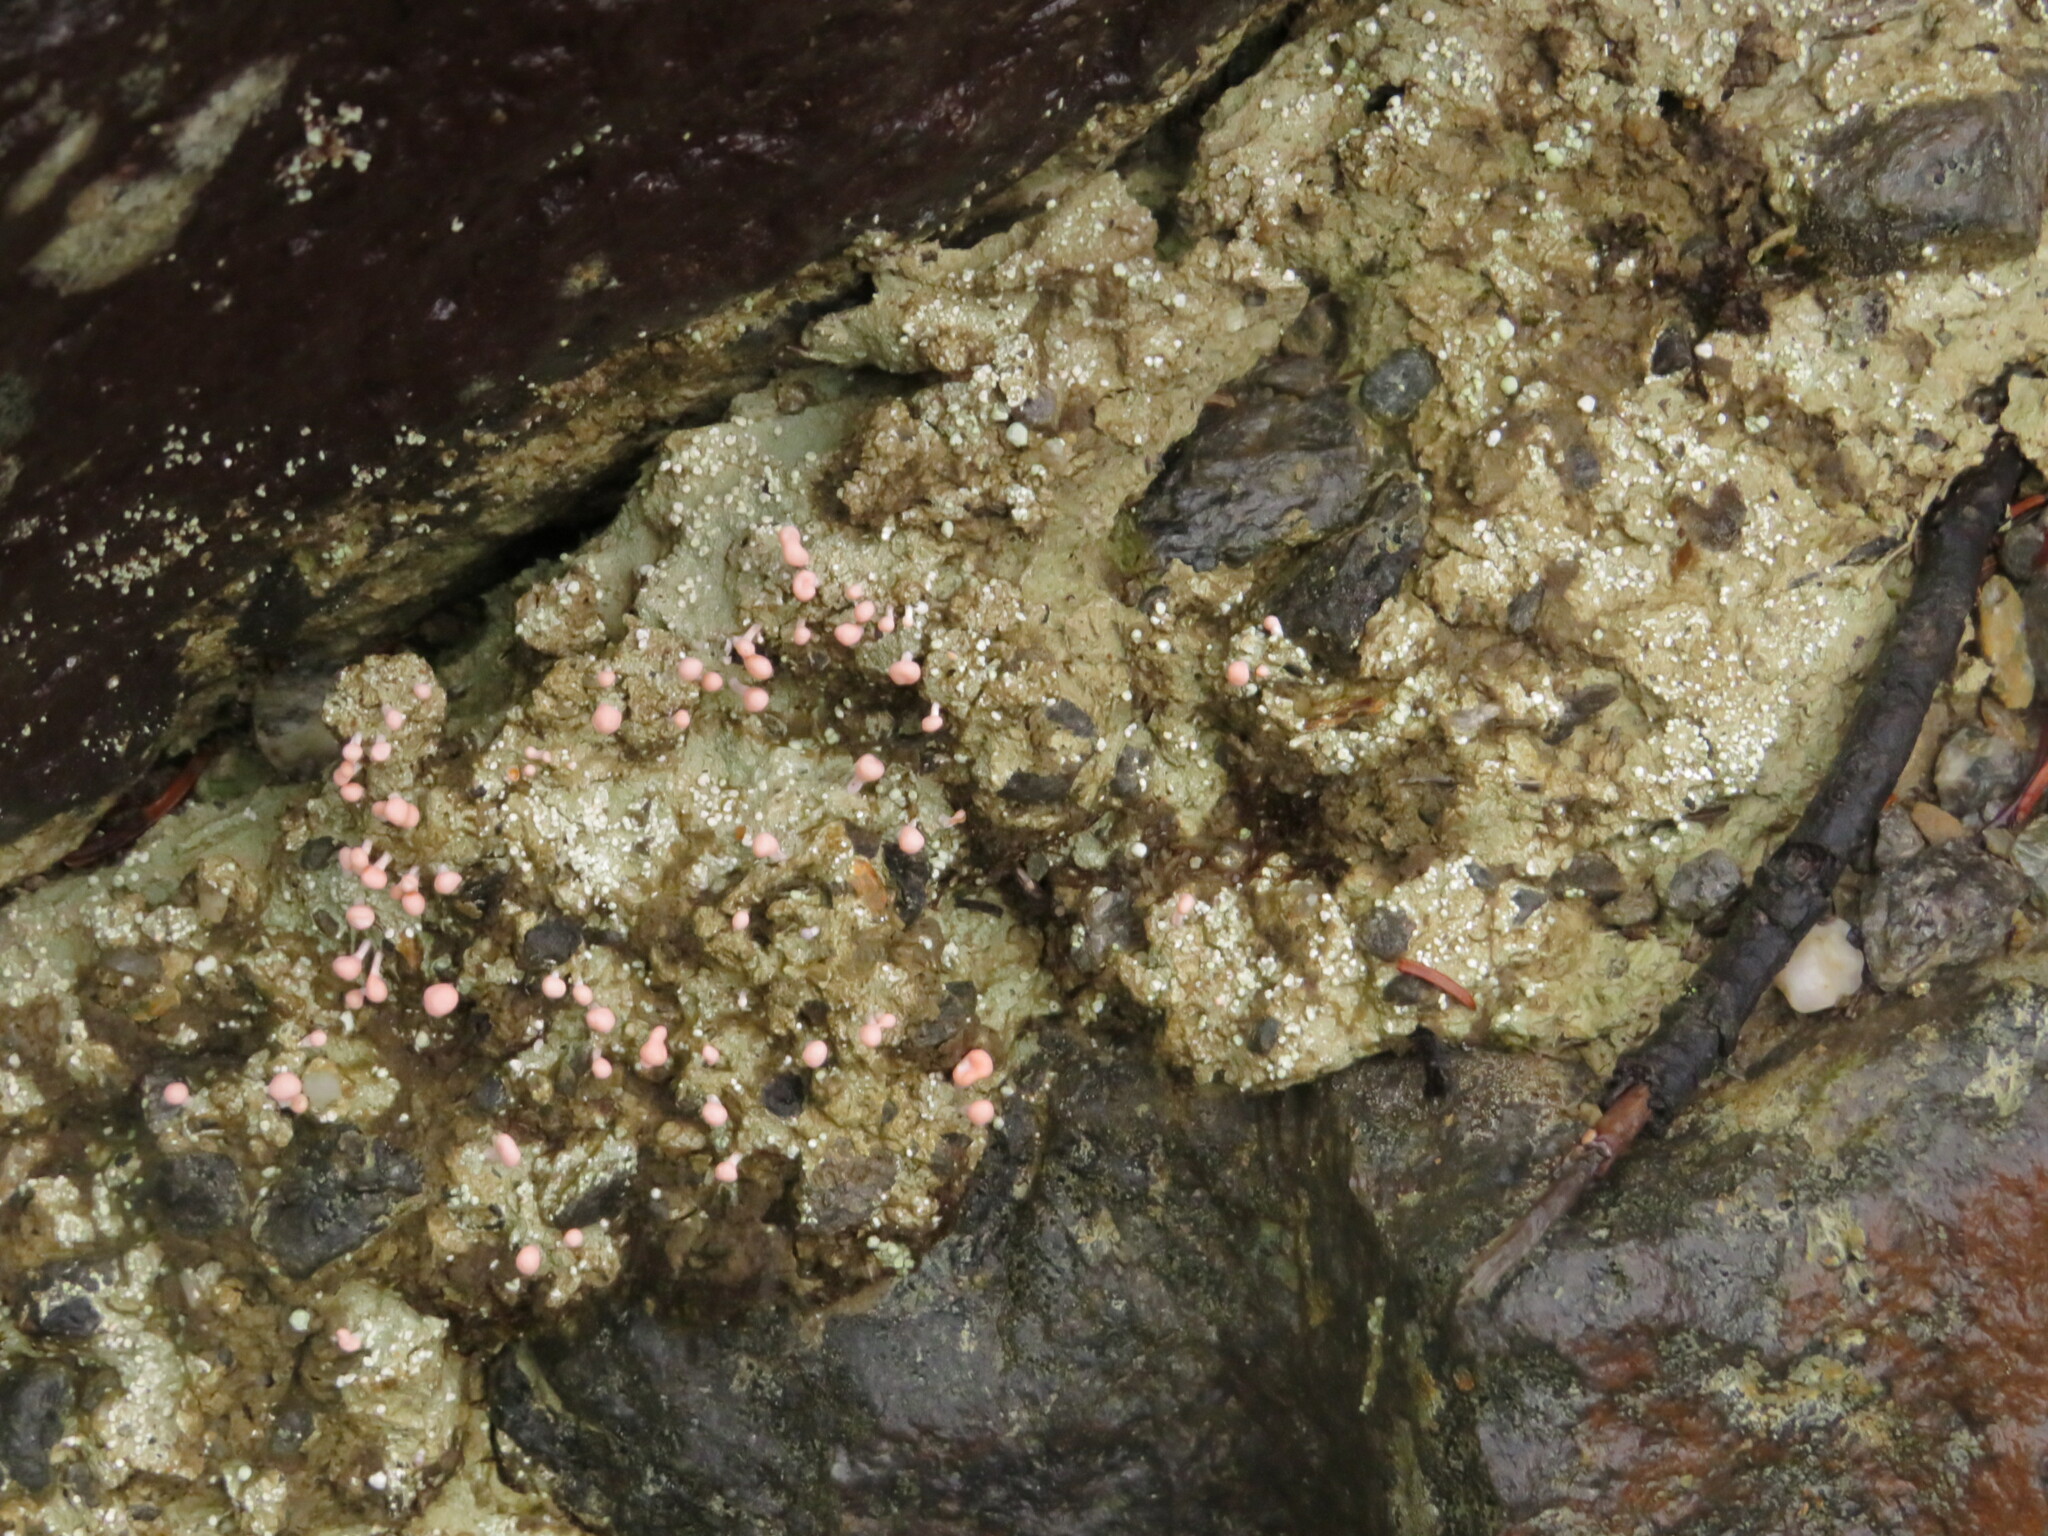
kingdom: Fungi
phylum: Ascomycota
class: Lecanoromycetes
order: Pertusariales
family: Icmadophilaceae
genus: Dibaeis
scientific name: Dibaeis baeomyces
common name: Pink earth lichen
